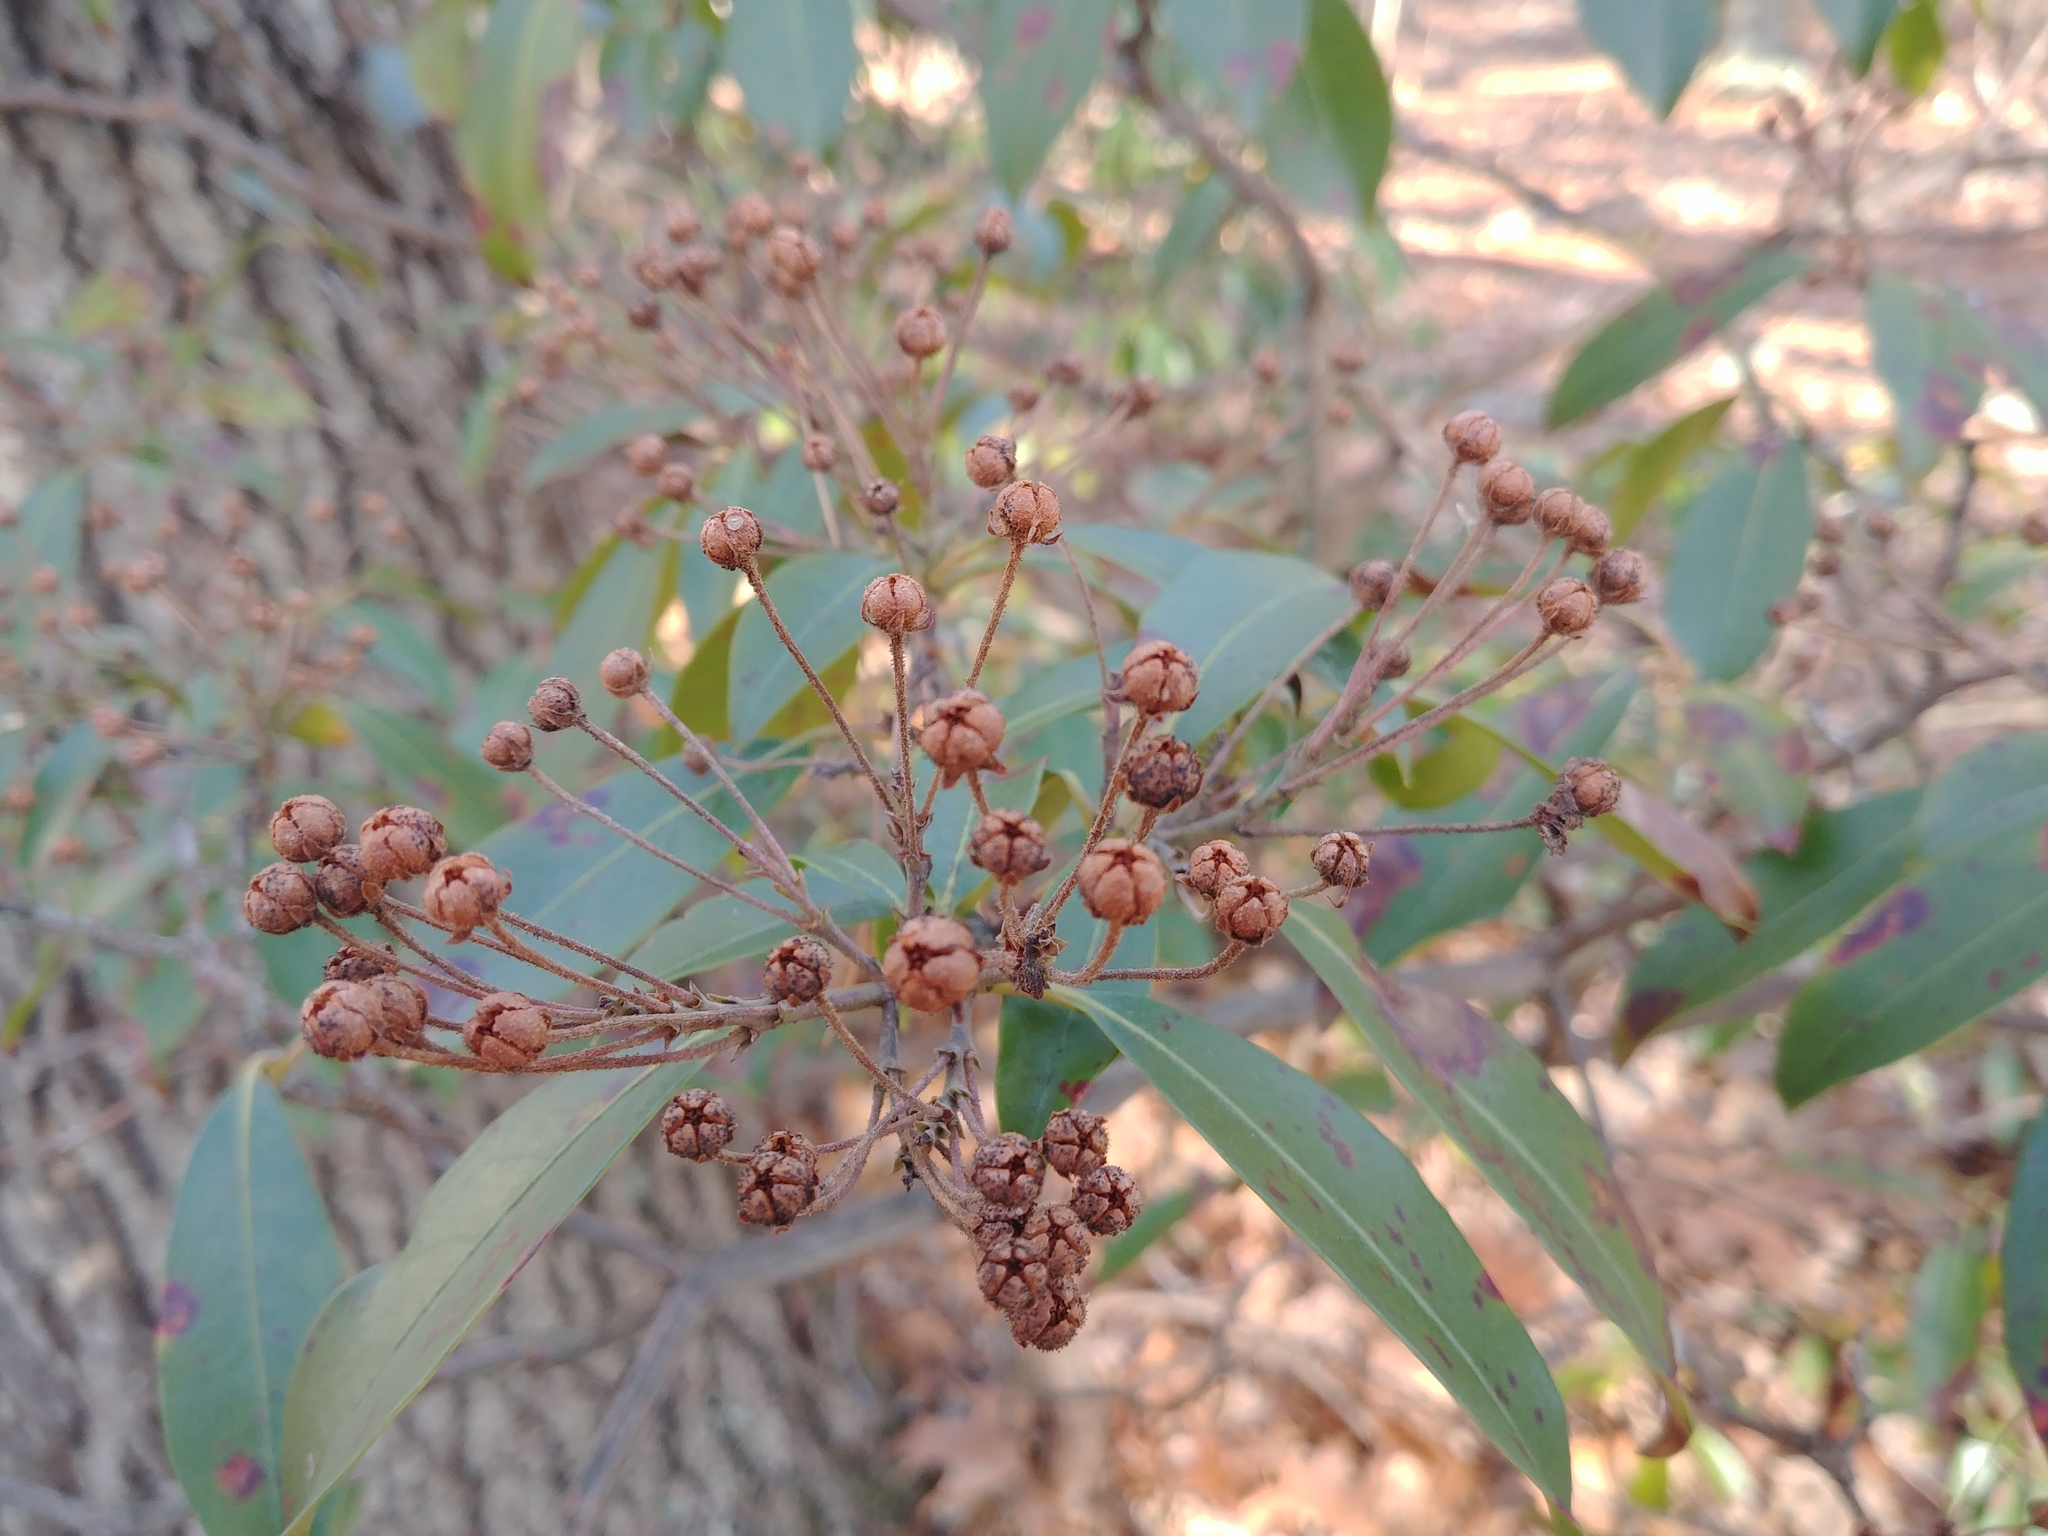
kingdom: Plantae
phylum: Tracheophyta
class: Magnoliopsida
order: Ericales
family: Ericaceae
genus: Kalmia
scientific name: Kalmia latifolia
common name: Mountain-laurel
